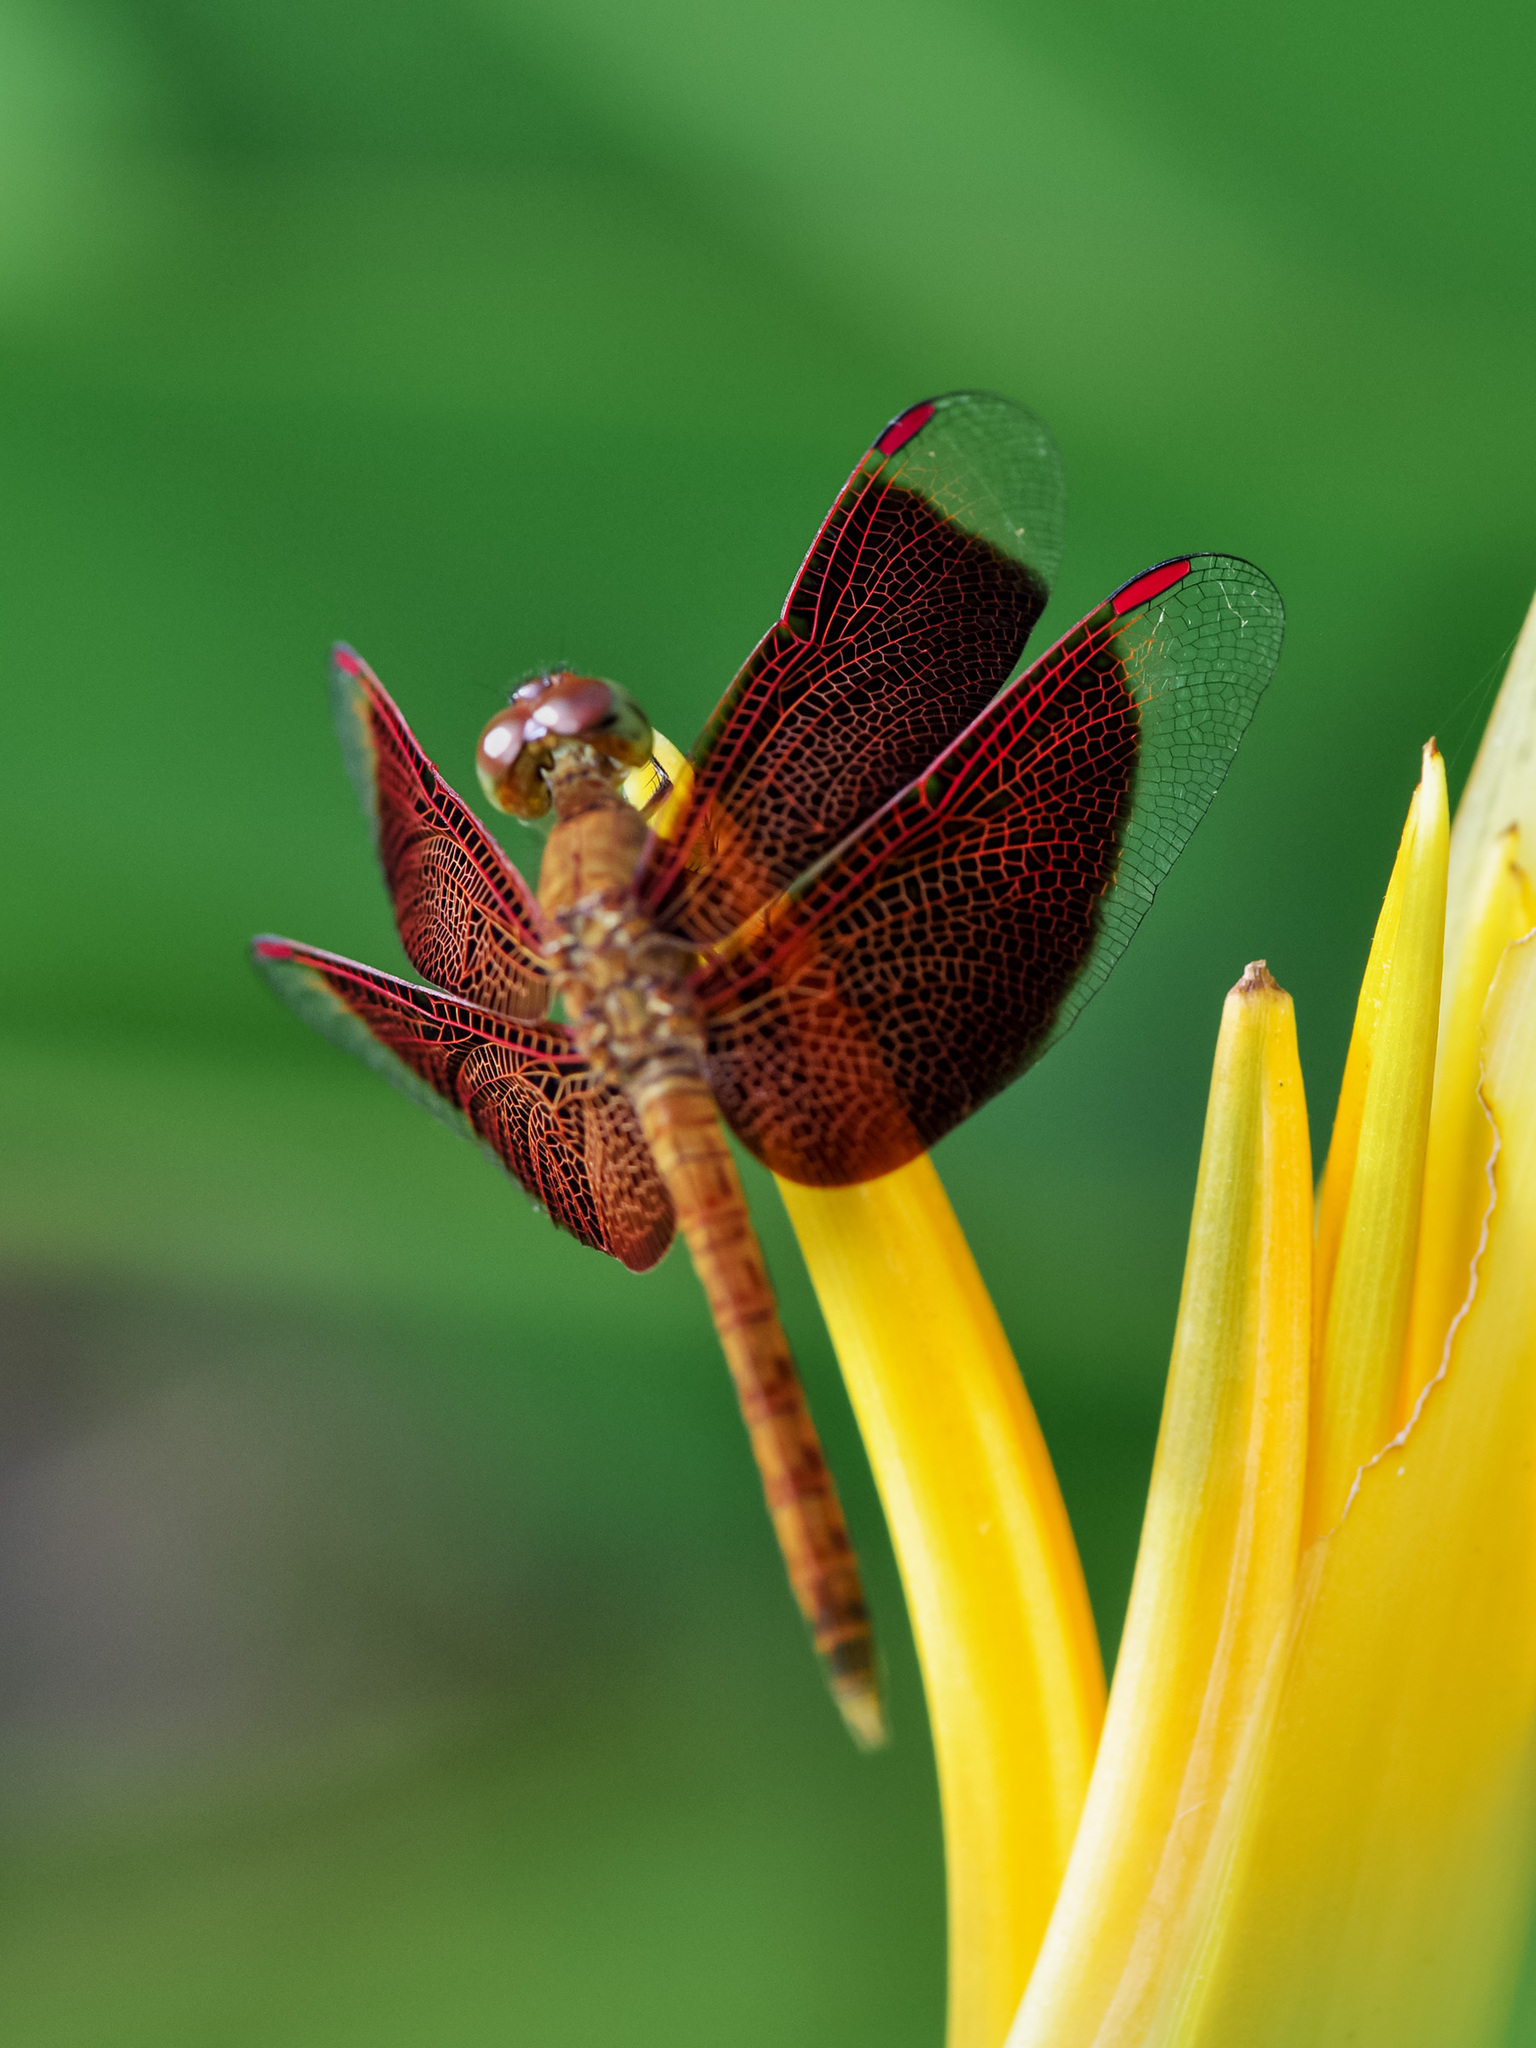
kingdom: Animalia
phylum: Arthropoda
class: Insecta
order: Odonata
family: Libellulidae
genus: Neurothemis
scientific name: Neurothemis fluctuans
